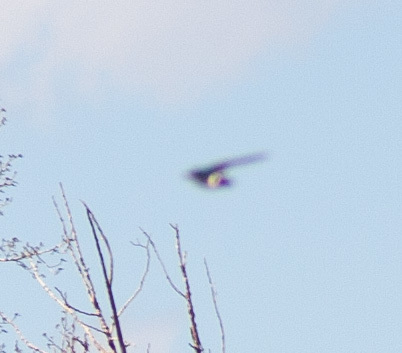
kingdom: Animalia
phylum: Chordata
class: Aves
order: Passeriformes
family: Hirundinidae
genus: Tachycineta
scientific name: Tachycineta thalassina
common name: Violet-green swallow
